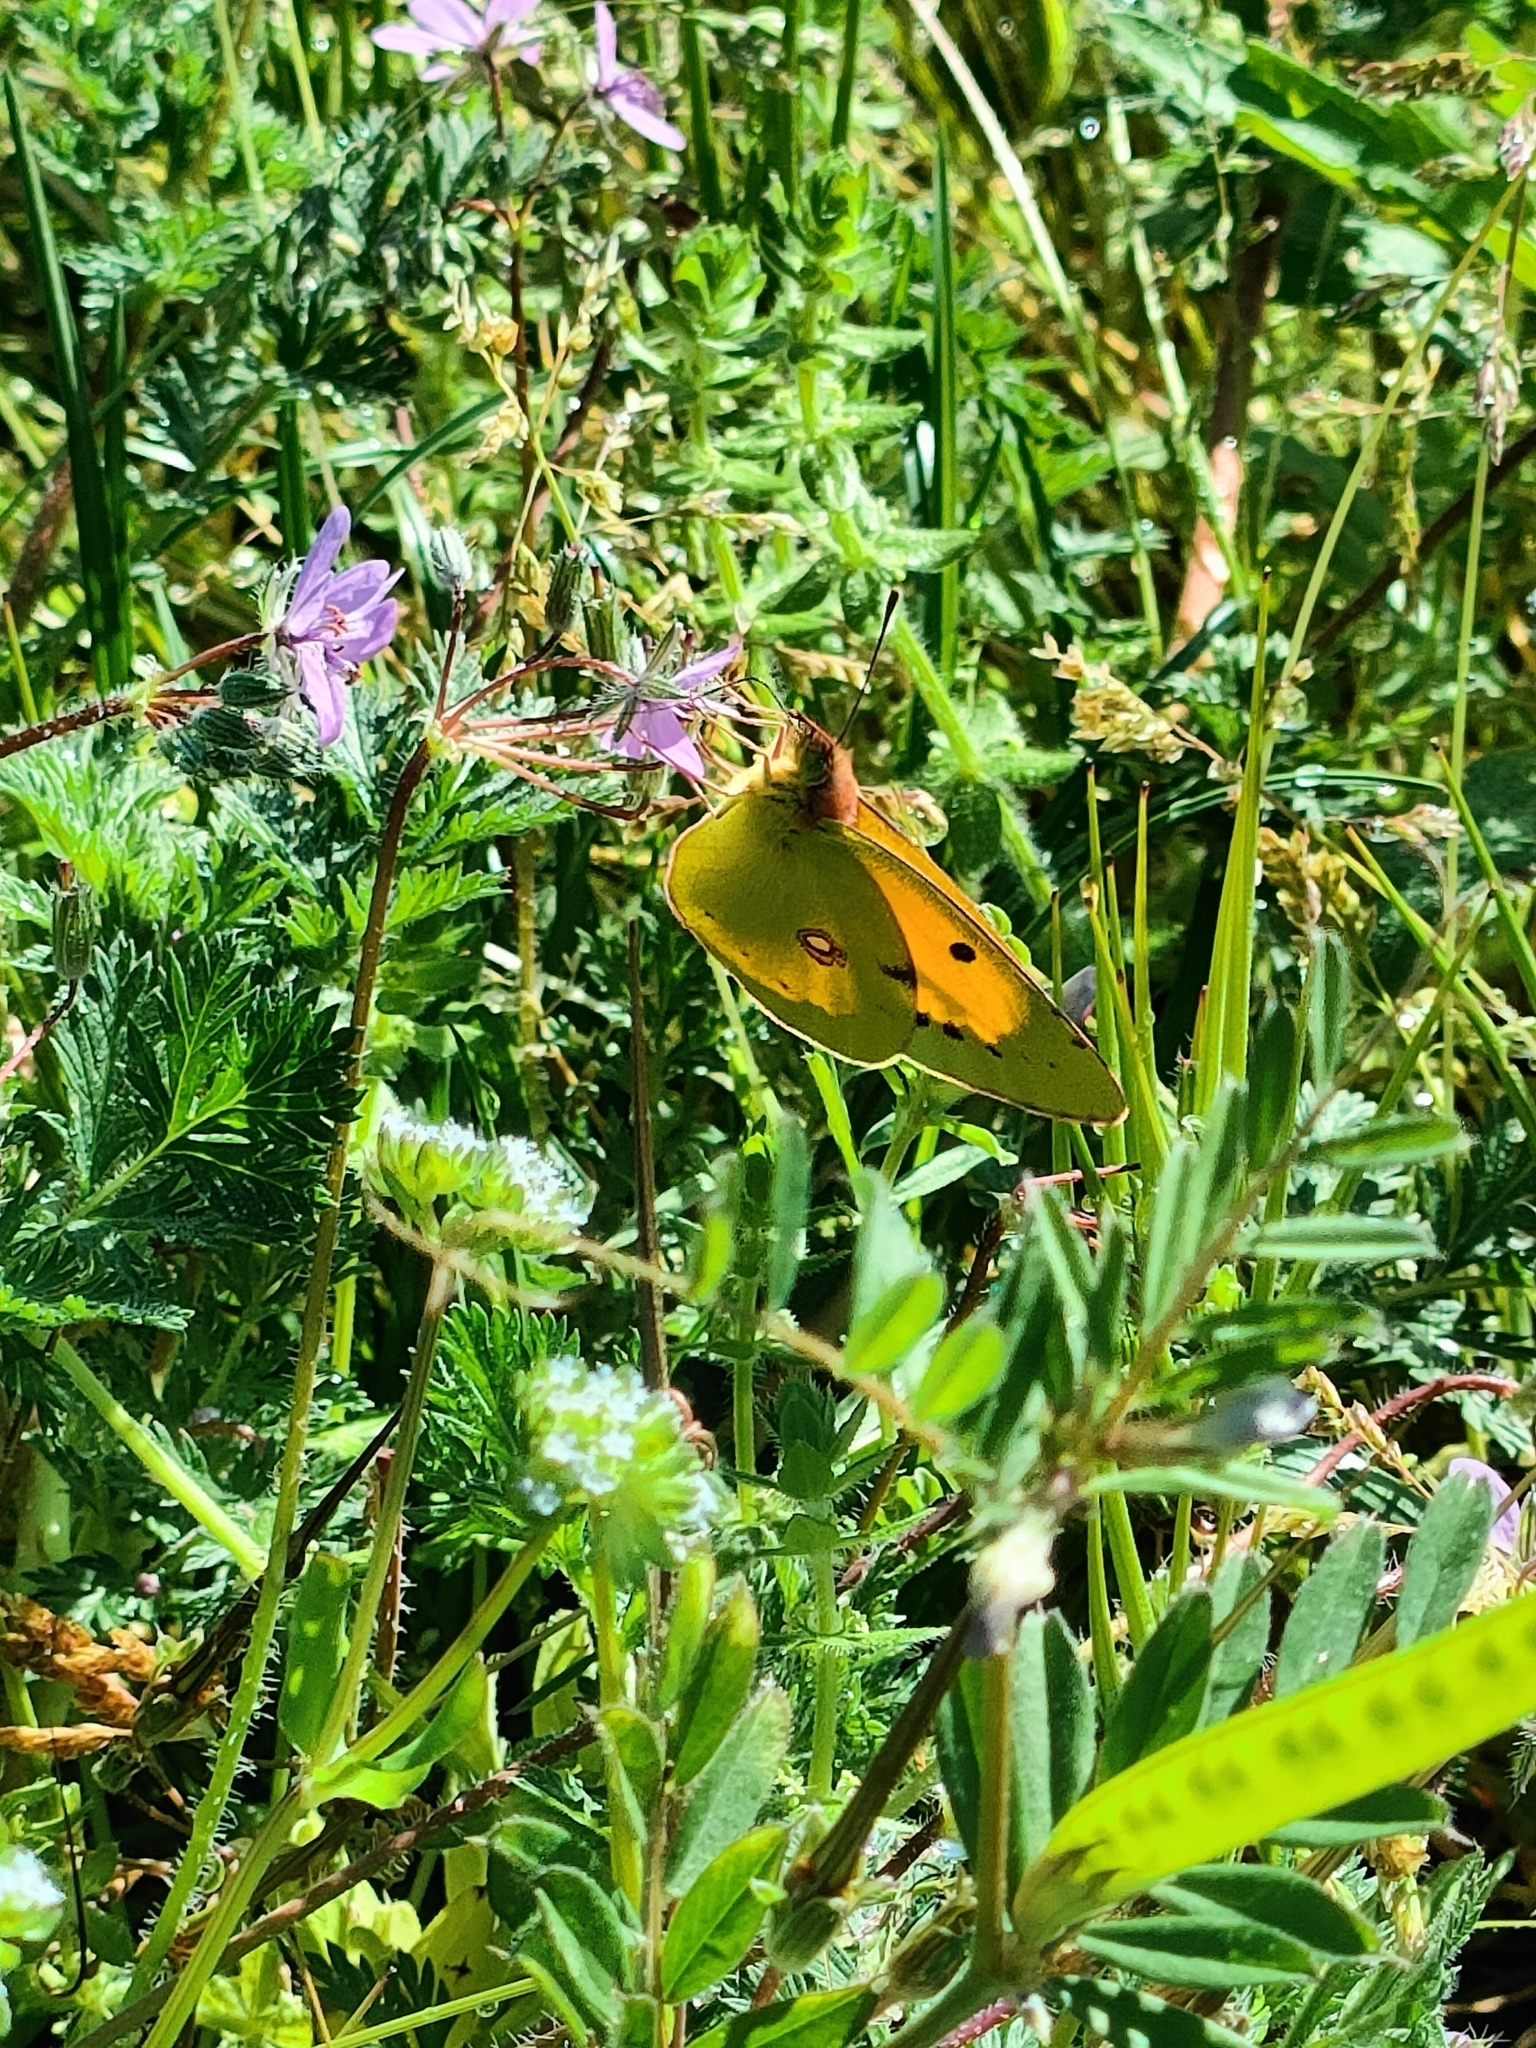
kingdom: Animalia
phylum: Arthropoda
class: Insecta
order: Lepidoptera
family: Pieridae
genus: Colias
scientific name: Colias croceus
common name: Clouded yellow
